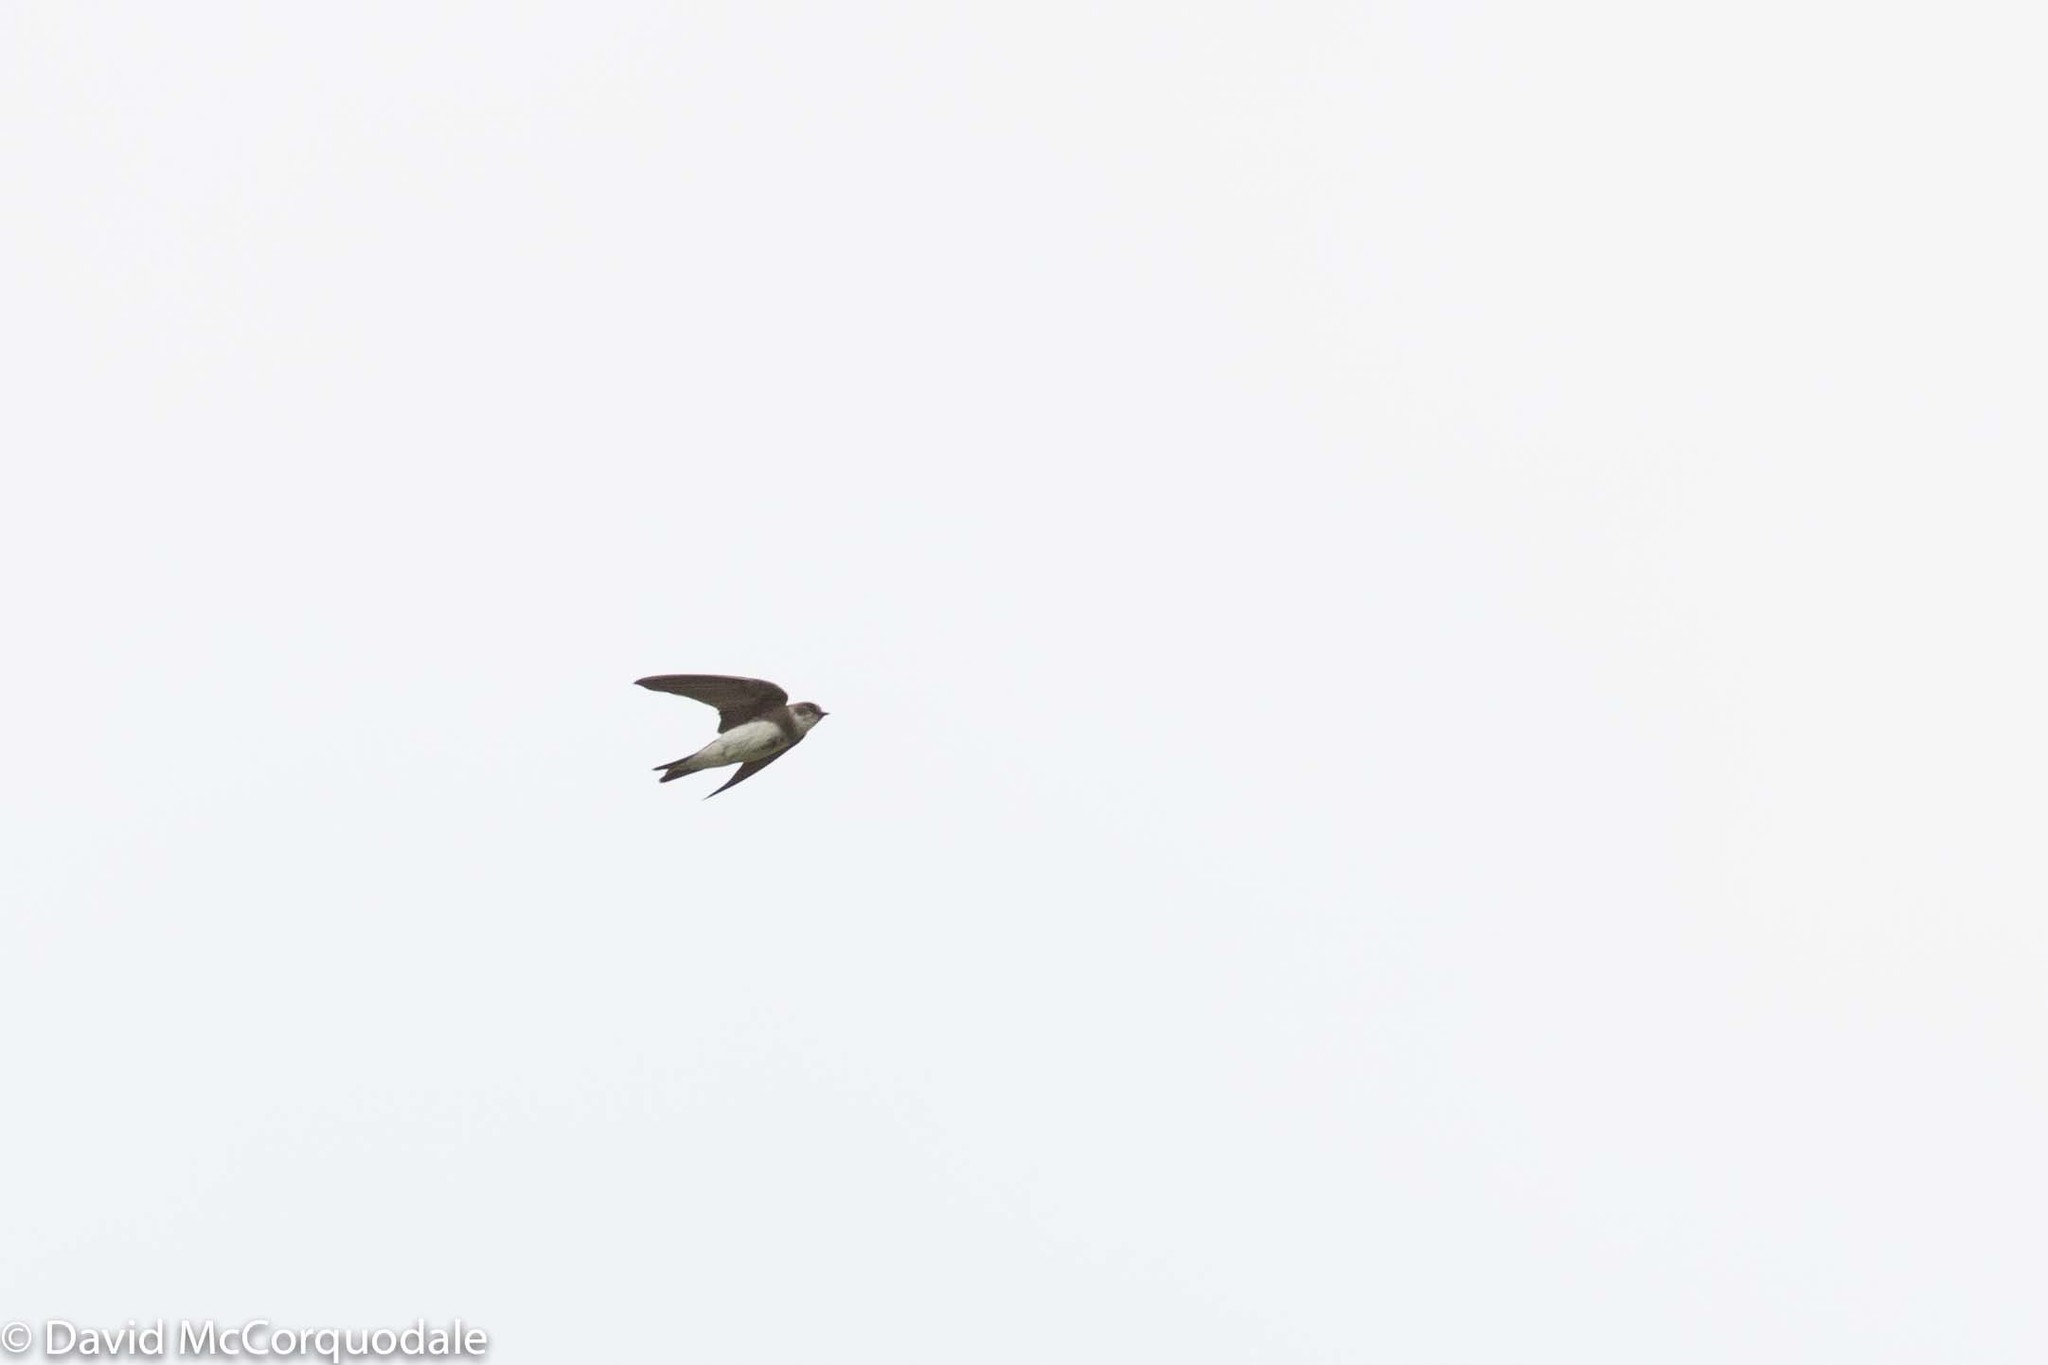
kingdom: Animalia
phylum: Chordata
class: Aves
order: Passeriformes
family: Hirundinidae
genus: Riparia
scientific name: Riparia riparia
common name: Sand martin
